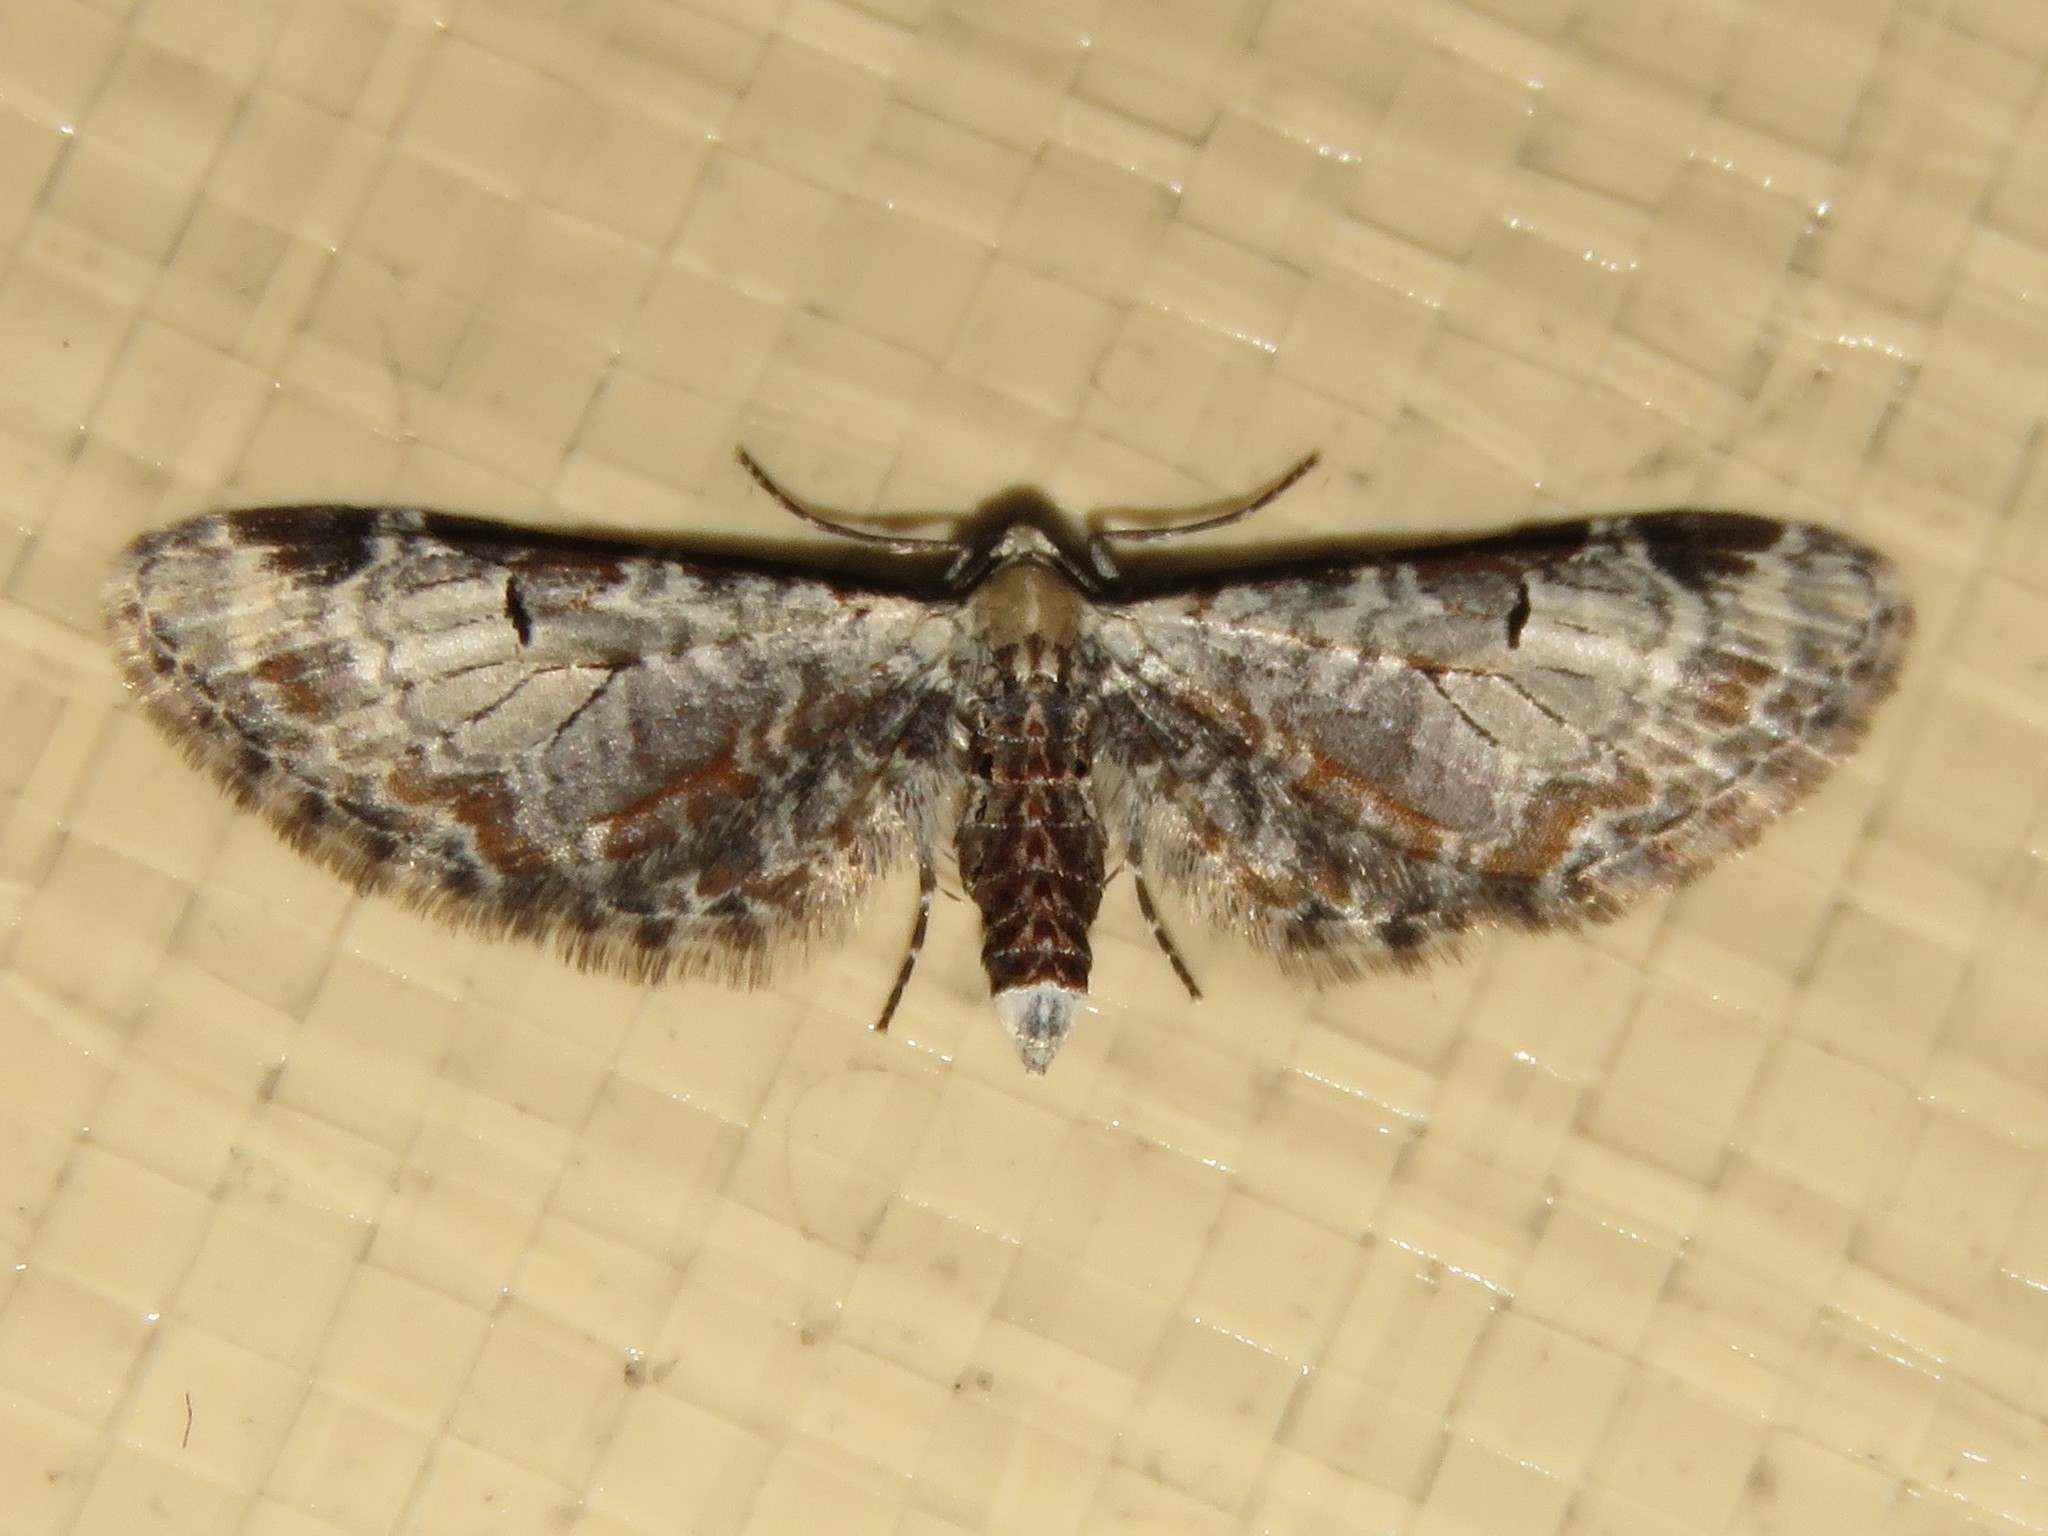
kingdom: Animalia
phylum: Arthropoda
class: Insecta
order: Lepidoptera
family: Geometridae
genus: Eupithecia
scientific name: Eupithecia ravocostaliata
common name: Great varigated pug
